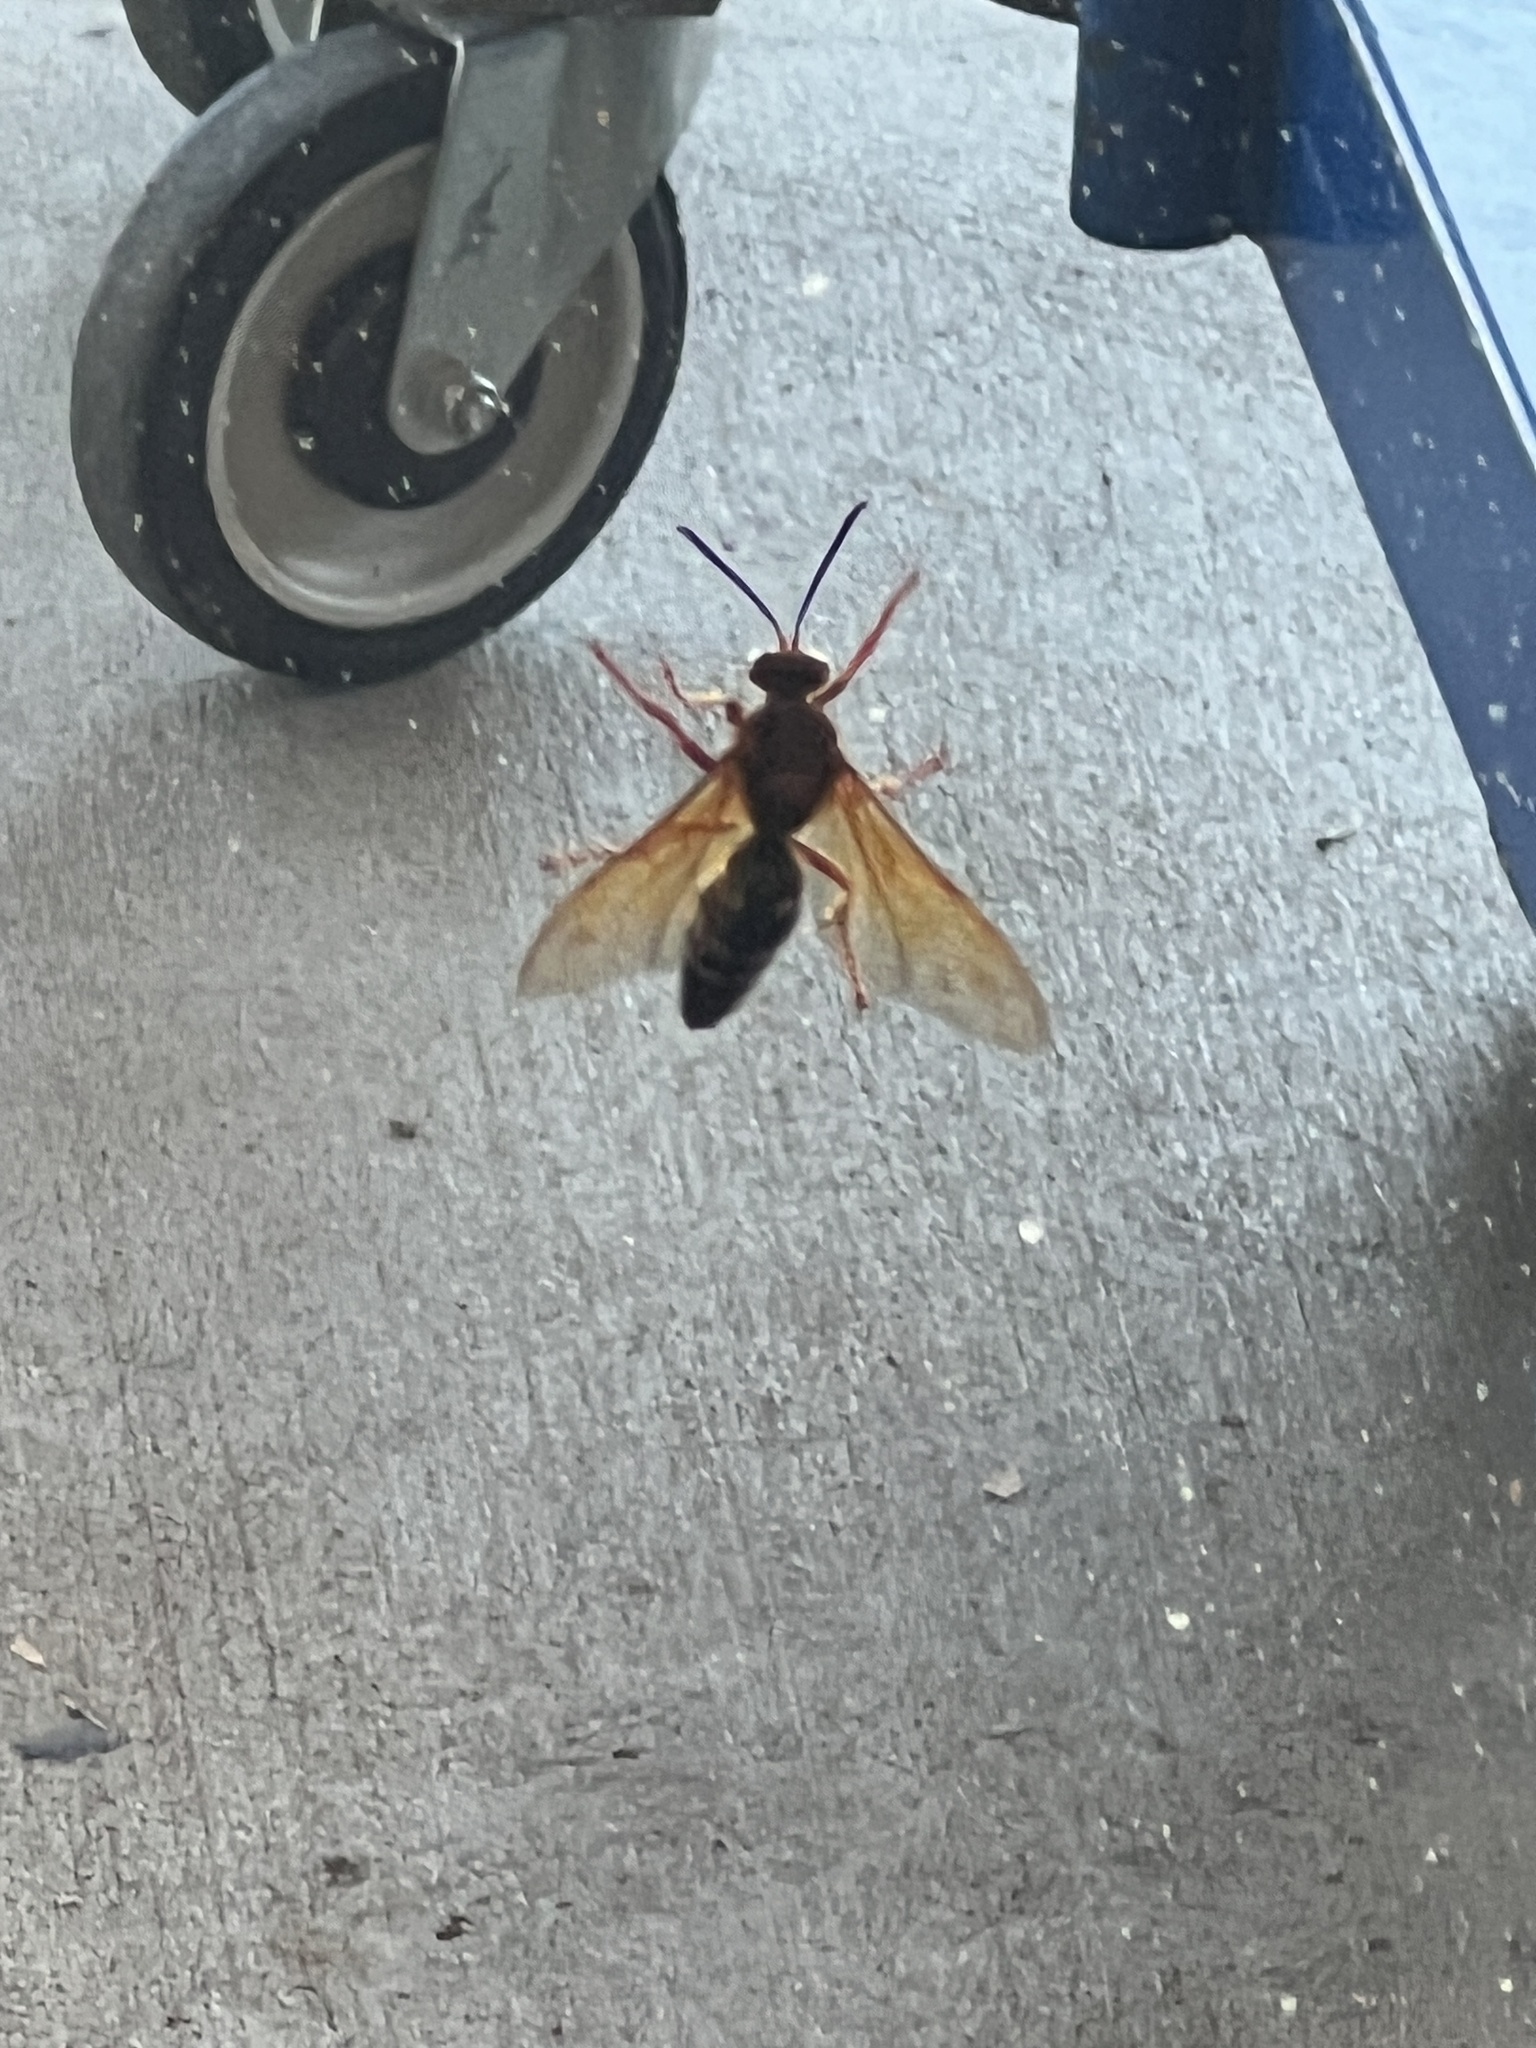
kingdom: Animalia
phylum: Arthropoda
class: Insecta
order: Hymenoptera
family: Crabronidae
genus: Sphecius
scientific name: Sphecius speciosus
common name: Cicada killer
